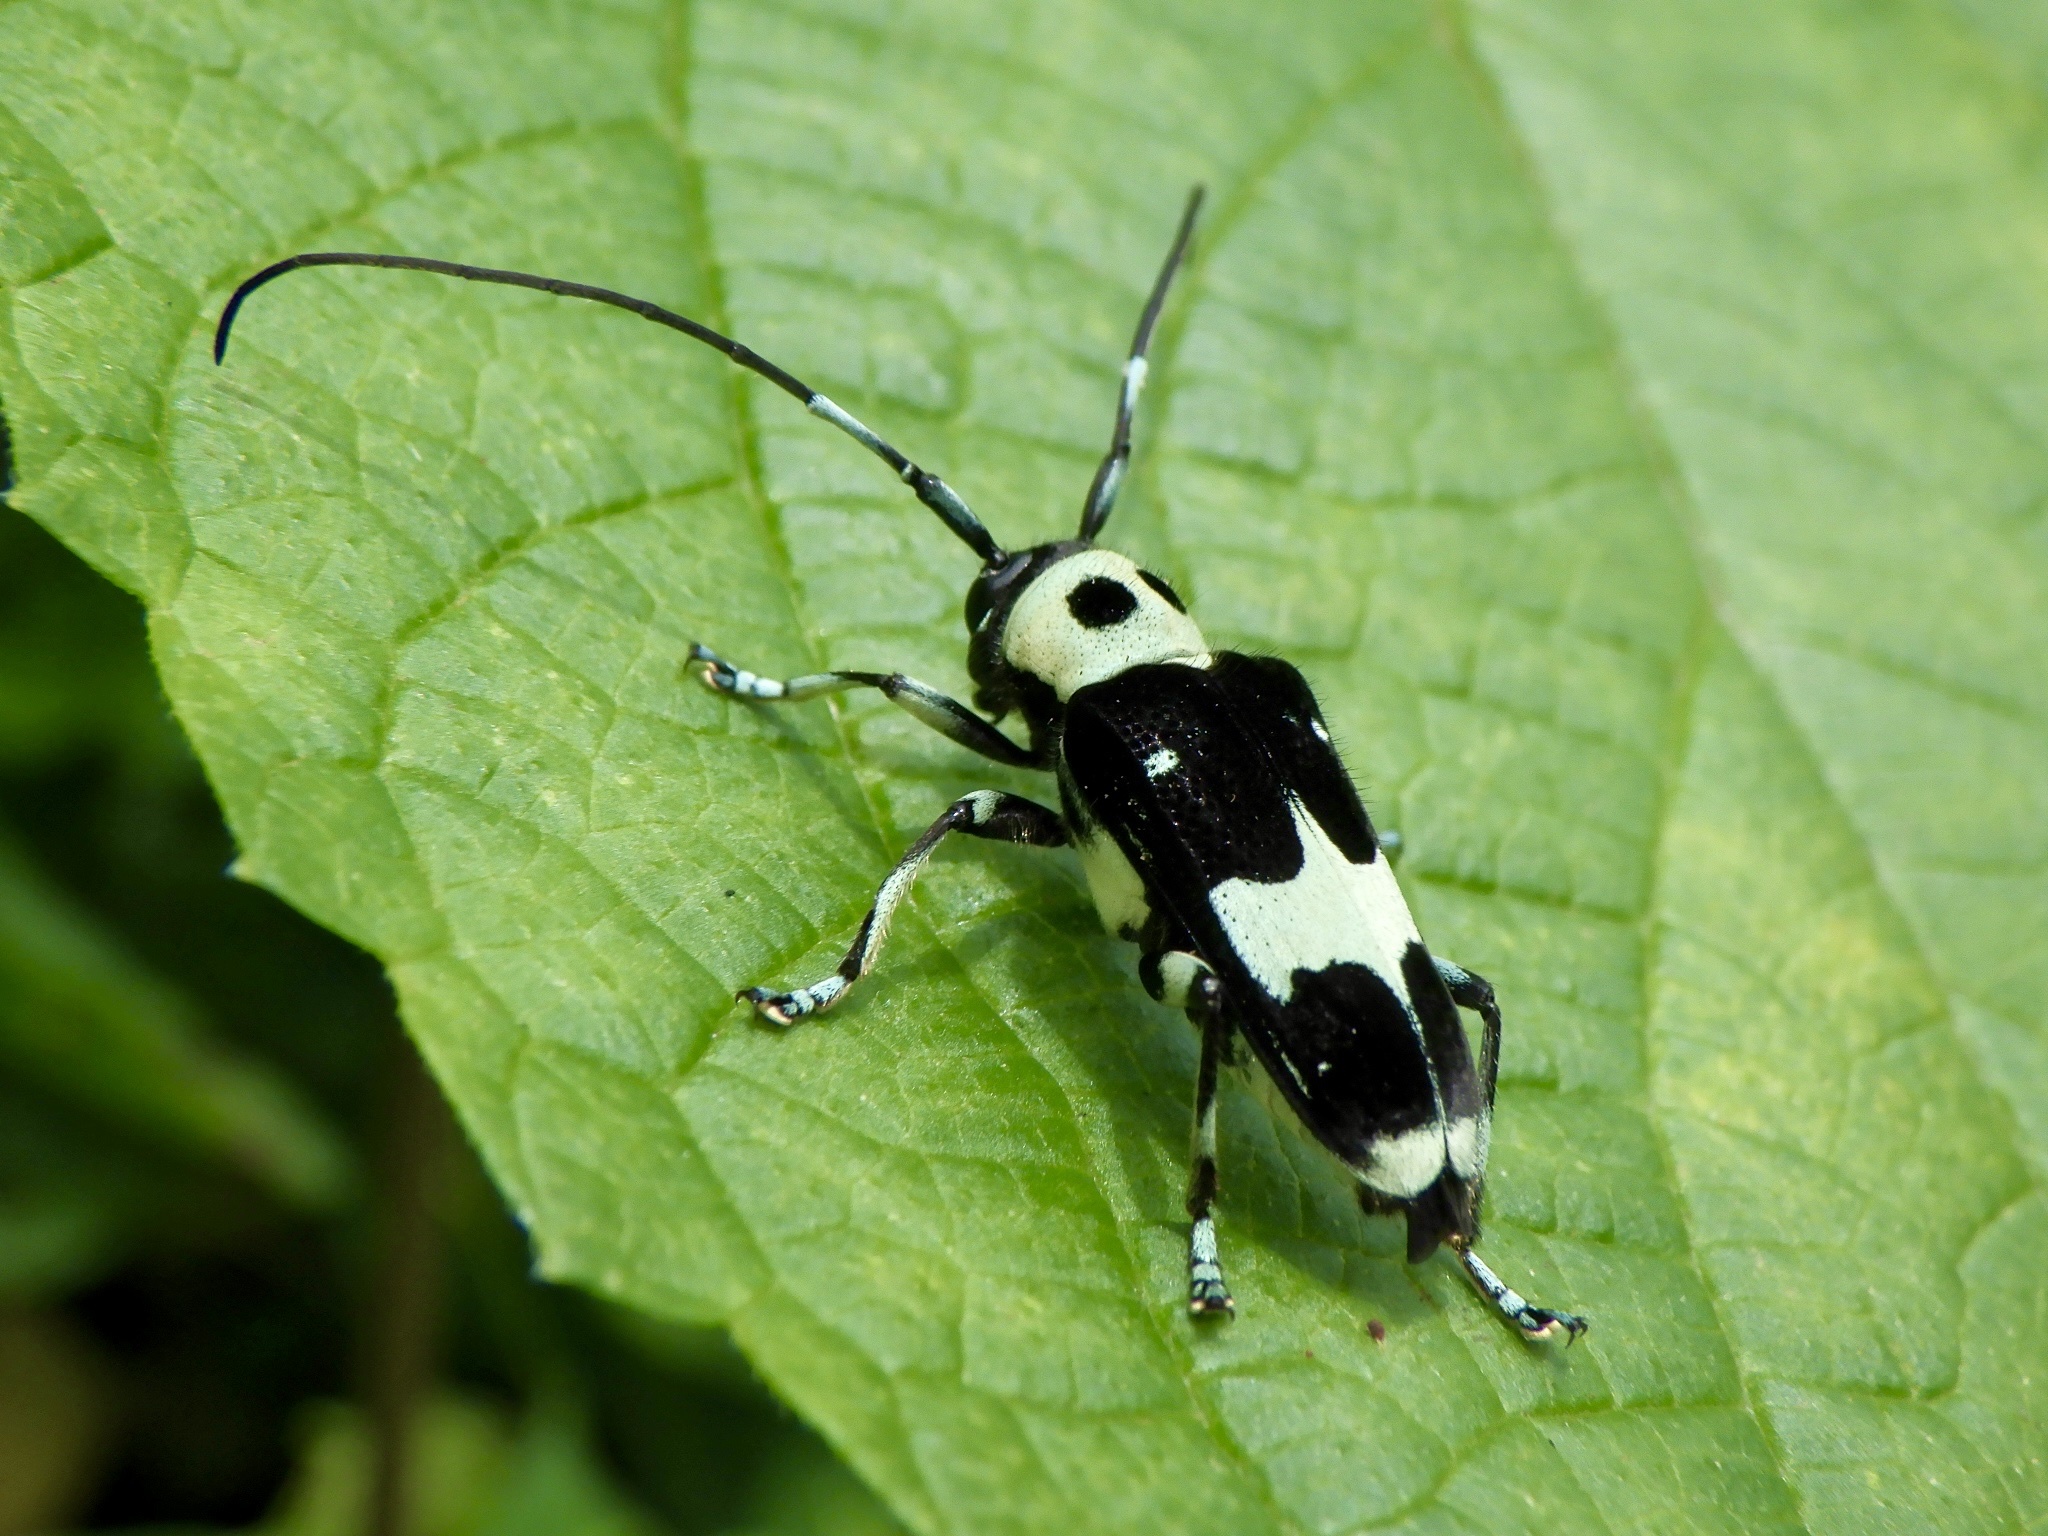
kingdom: Animalia
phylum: Arthropoda
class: Insecta
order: Coleoptera
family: Cerambycidae
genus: Paraglenea
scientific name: Paraglenea fortunei
